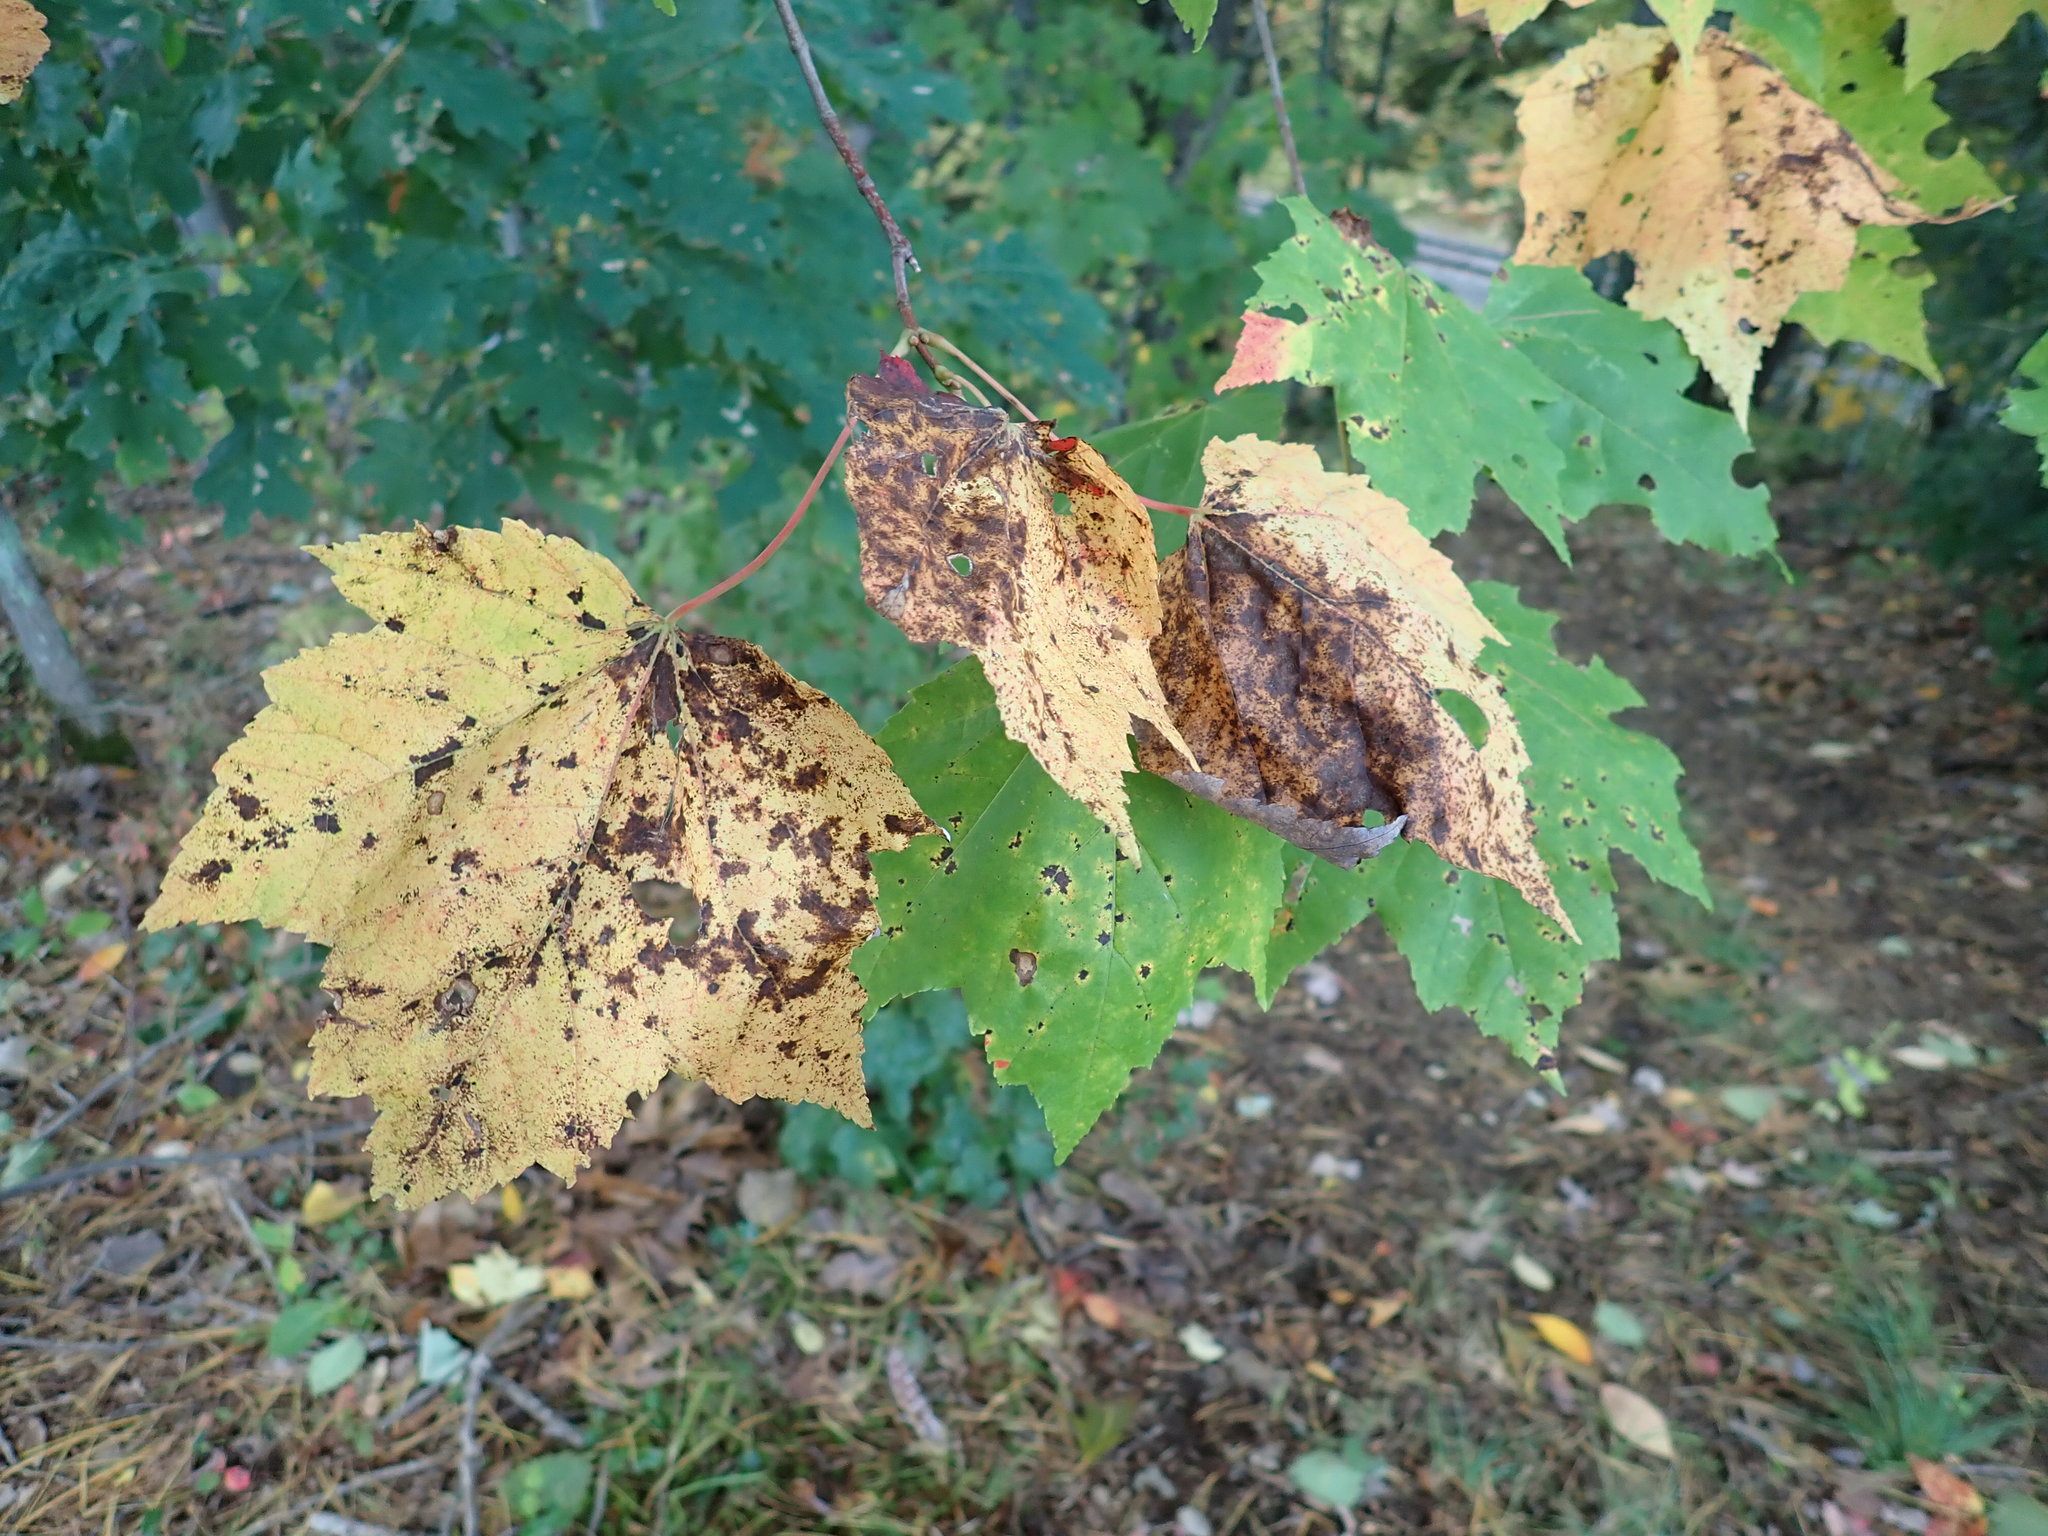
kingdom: Plantae
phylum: Tracheophyta
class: Magnoliopsida
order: Sapindales
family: Sapindaceae
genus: Acer
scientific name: Acer rubrum
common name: Red maple
